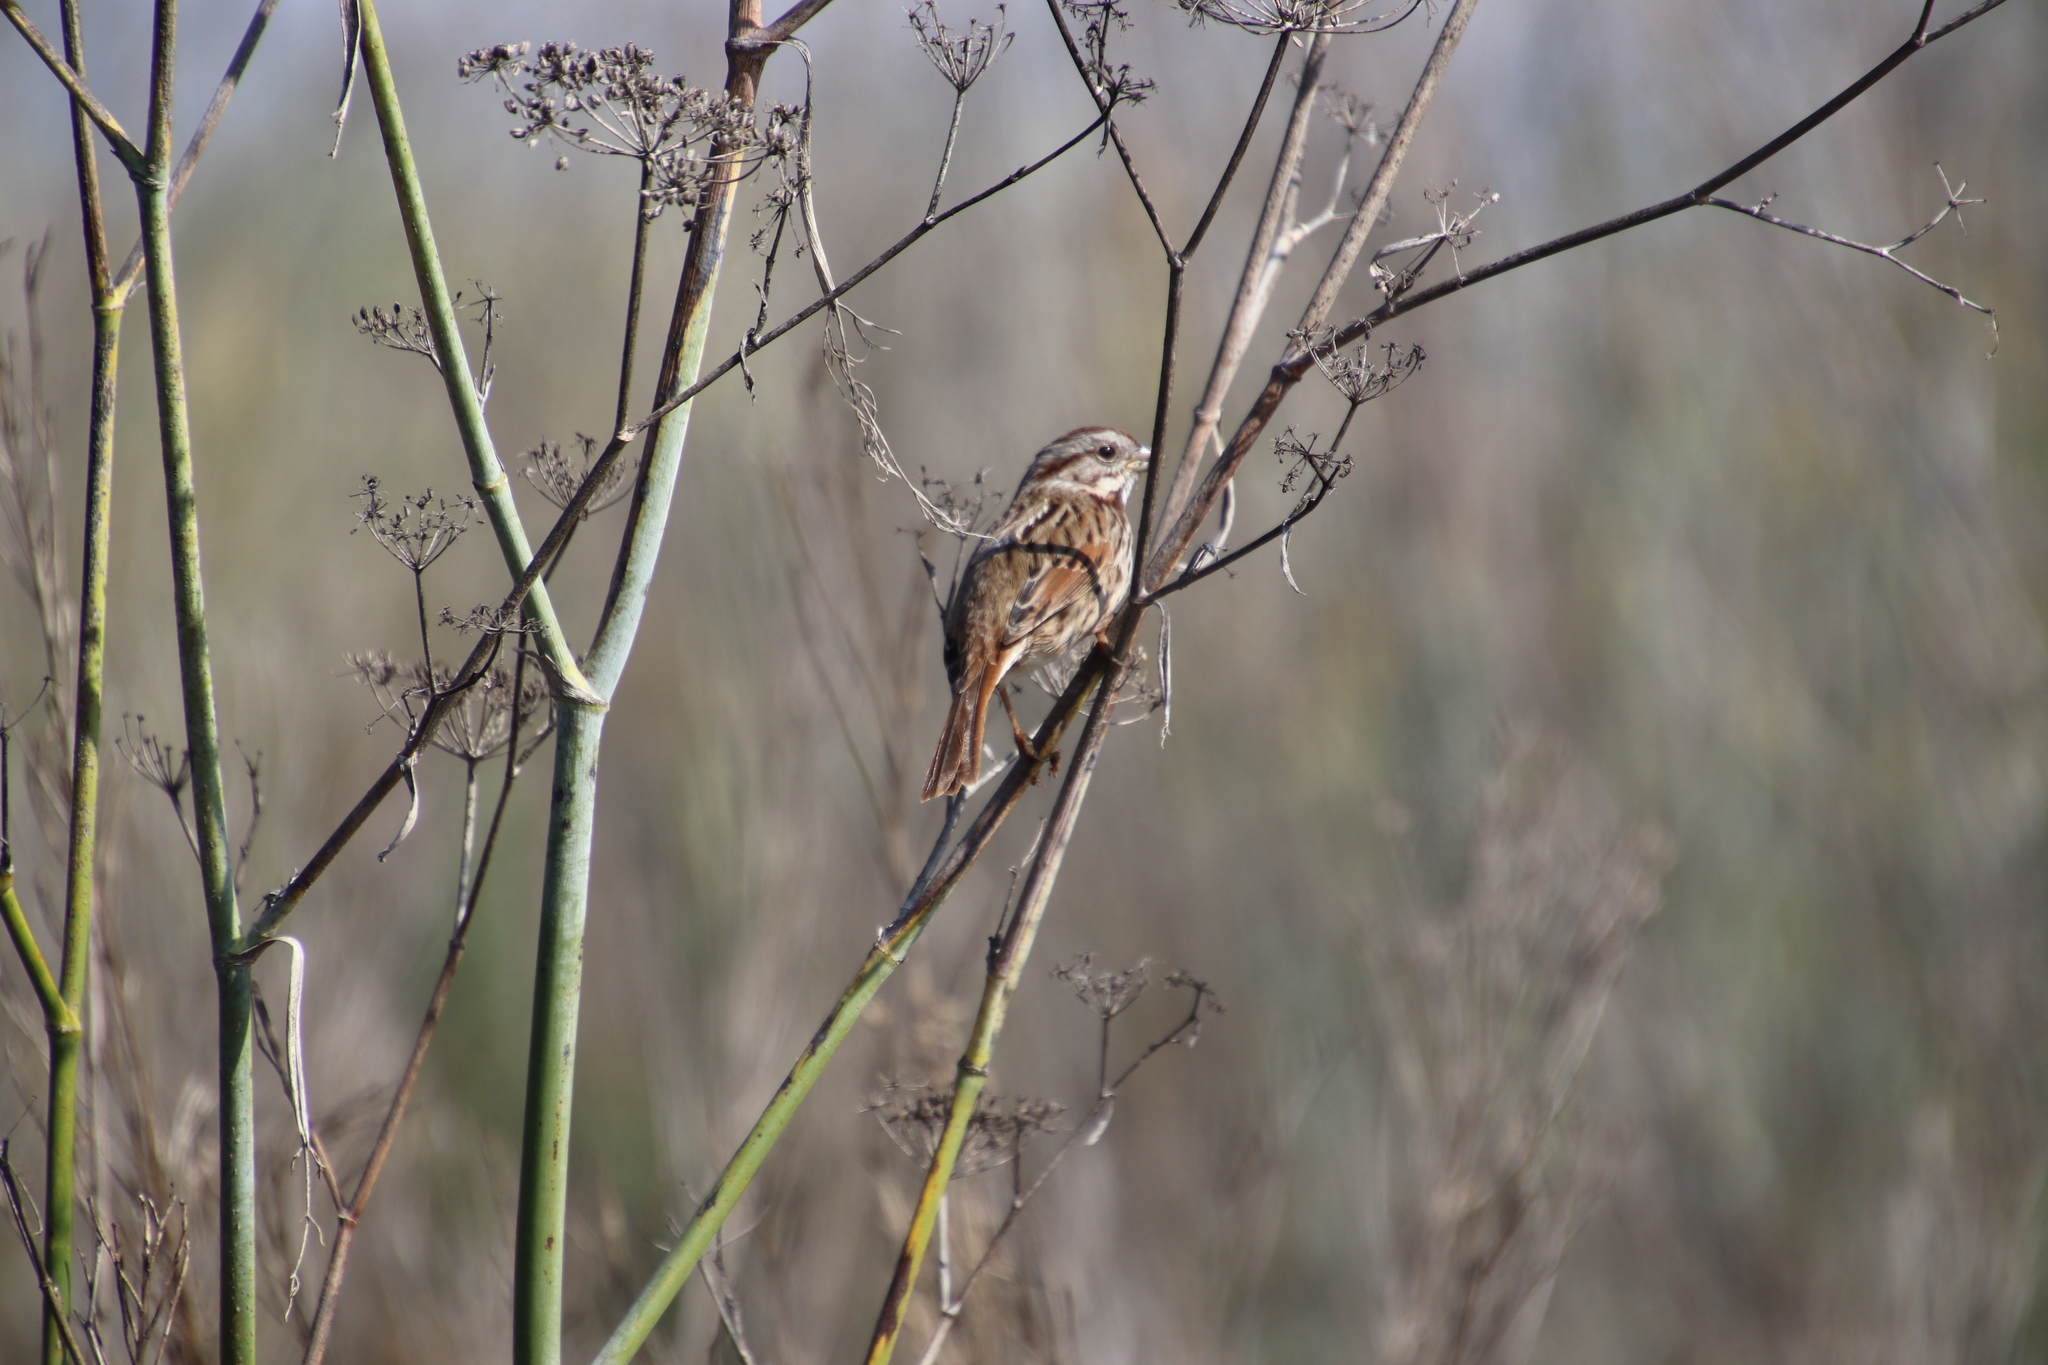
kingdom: Animalia
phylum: Chordata
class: Aves
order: Passeriformes
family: Passerellidae
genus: Melospiza
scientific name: Melospiza melodia
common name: Song sparrow
